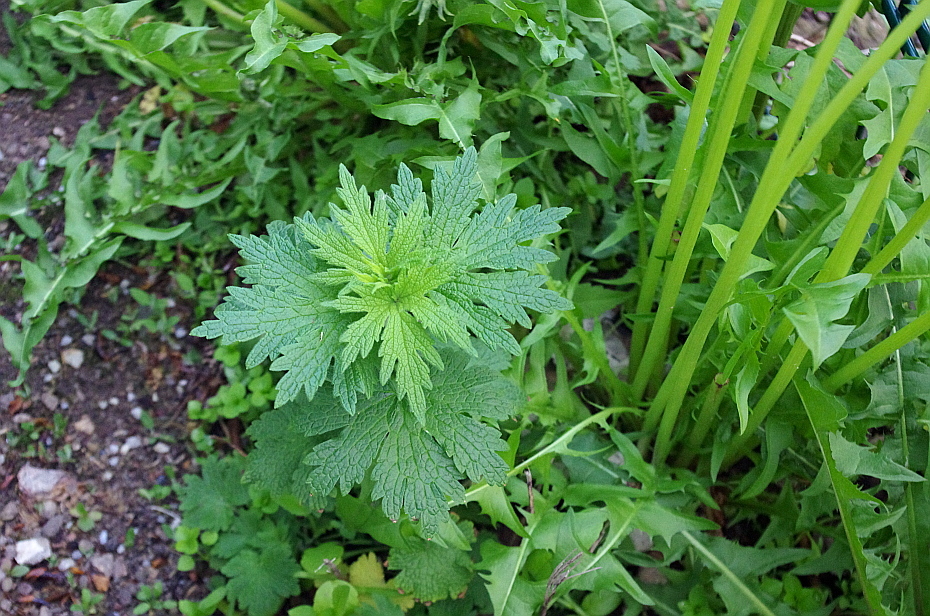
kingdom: Plantae
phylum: Tracheophyta
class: Magnoliopsida
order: Lamiales
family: Lamiaceae
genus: Leonurus
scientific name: Leonurus quinquelobatus
